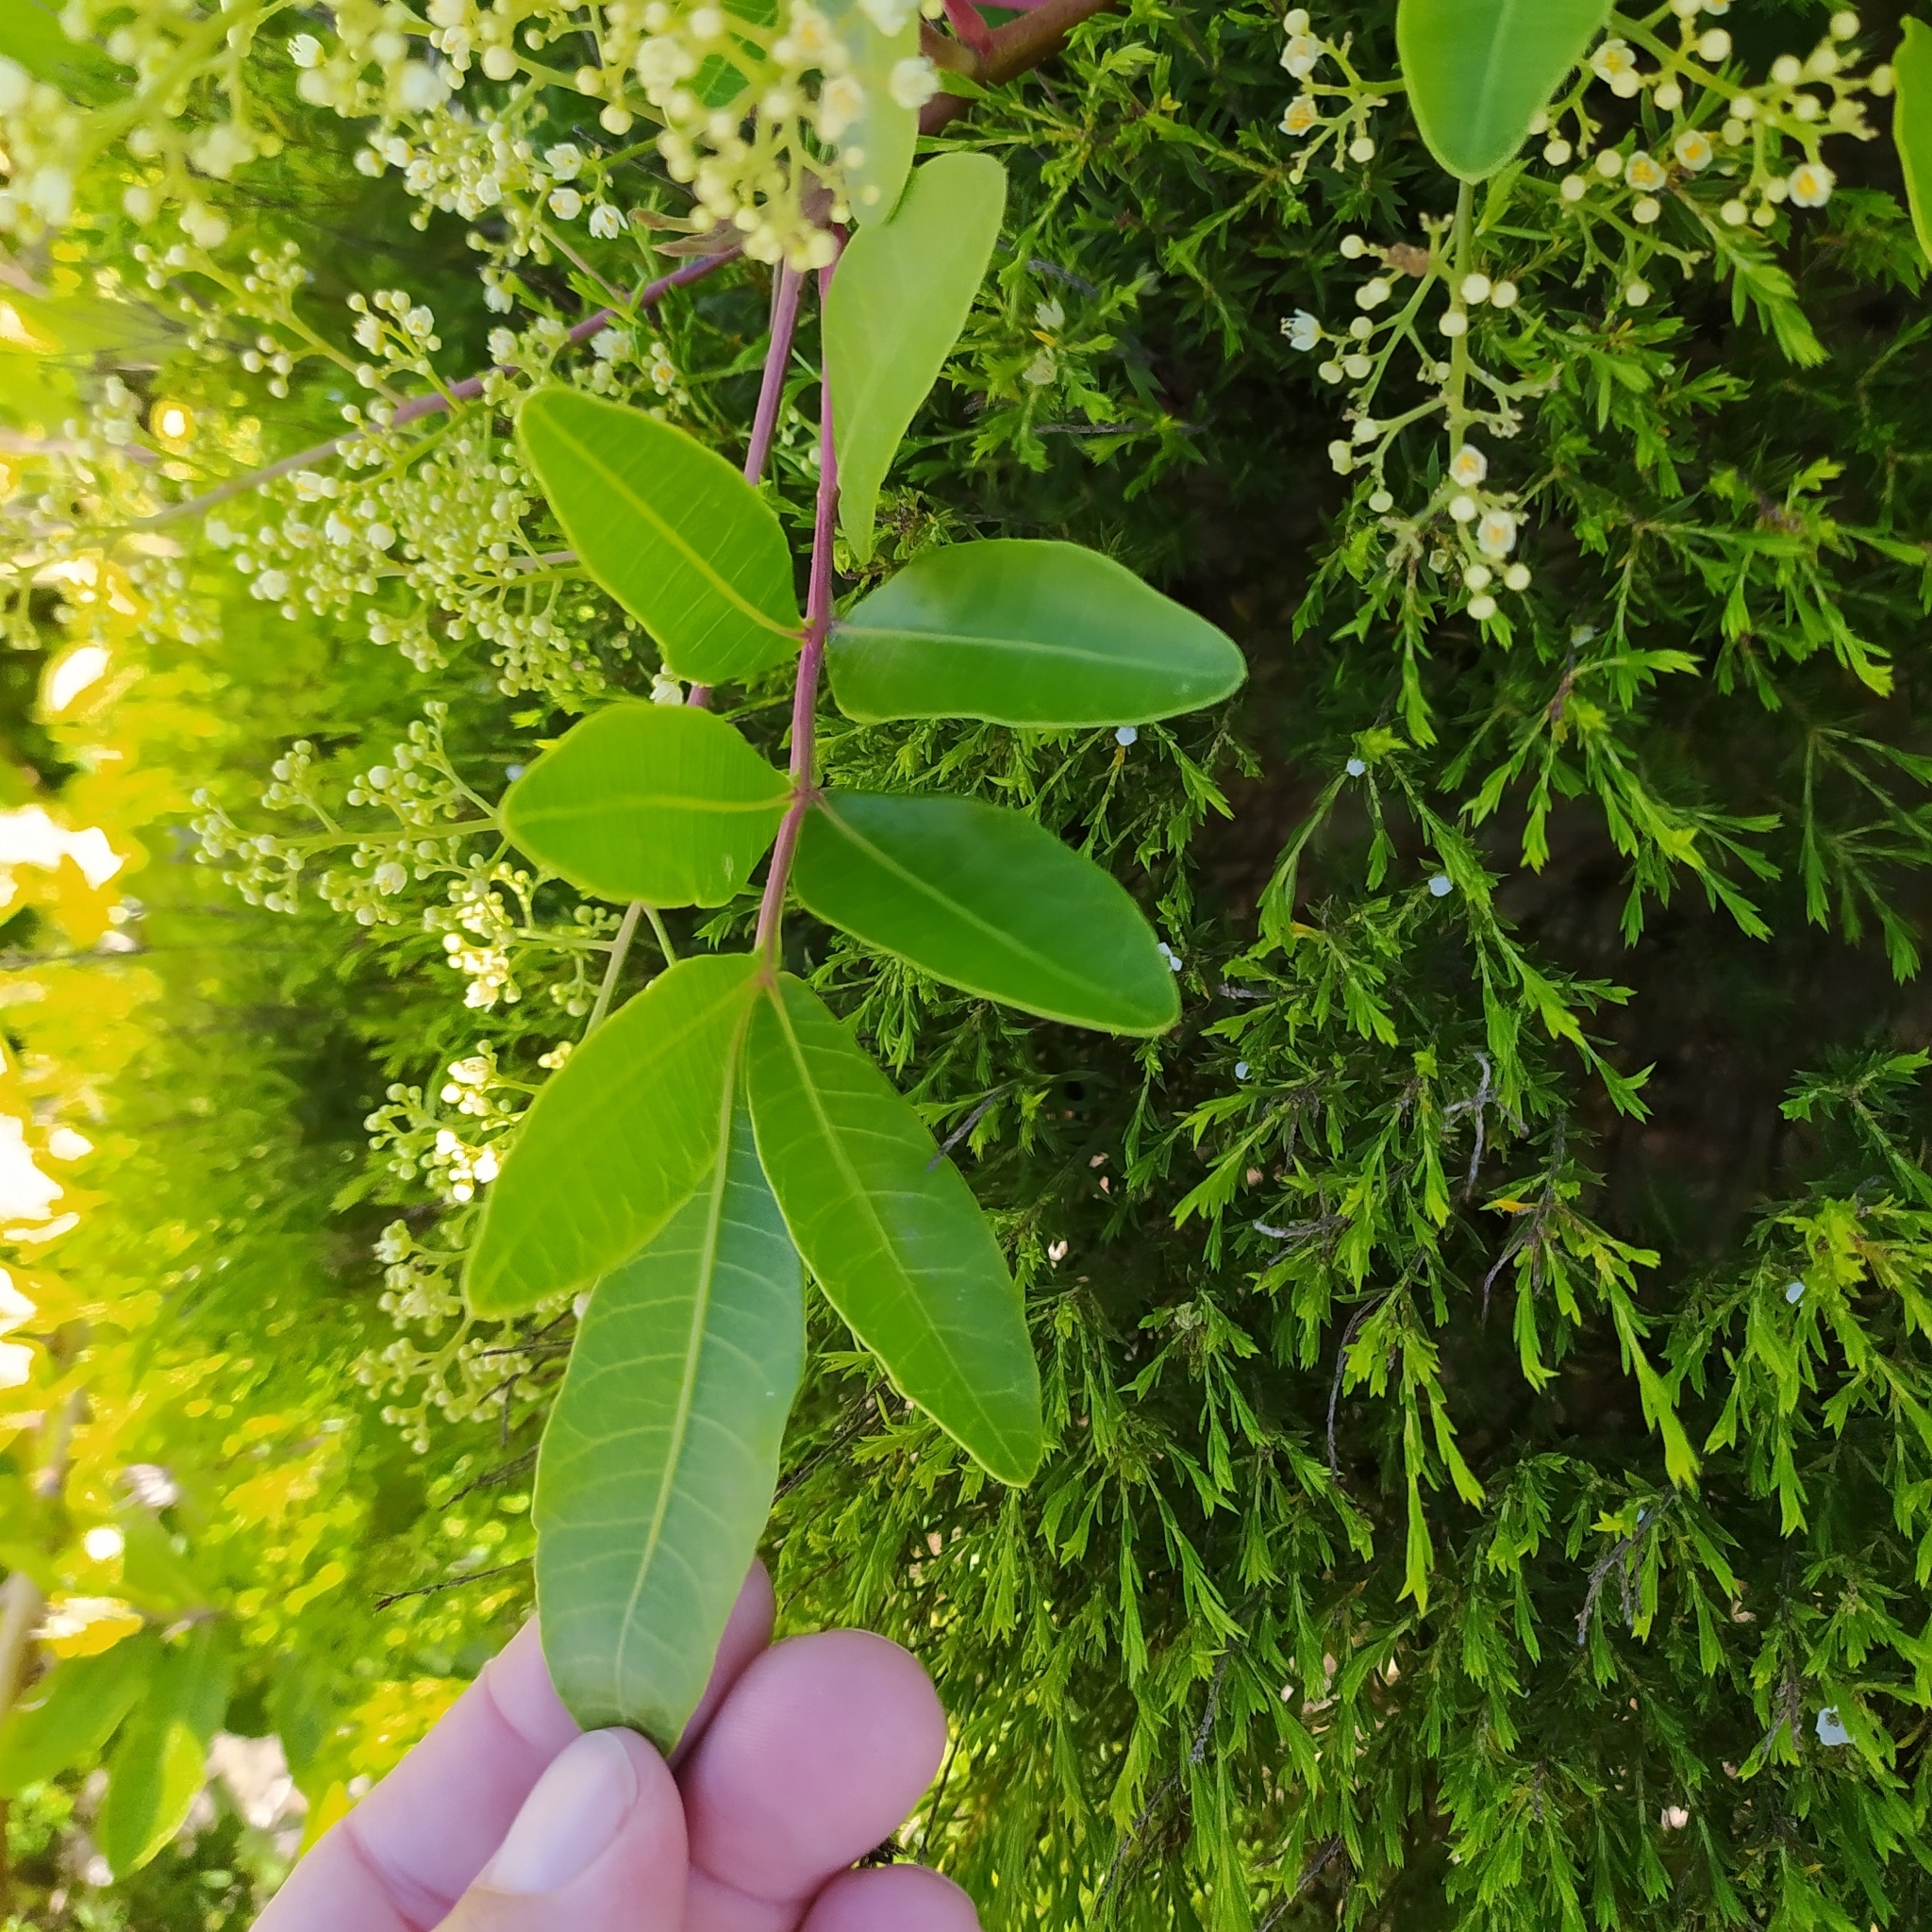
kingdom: Plantae
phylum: Tracheophyta
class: Magnoliopsida
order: Sapindales
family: Anacardiaceae
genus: Schinus
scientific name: Schinus terebinthifolia
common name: Brazilian peppertree
